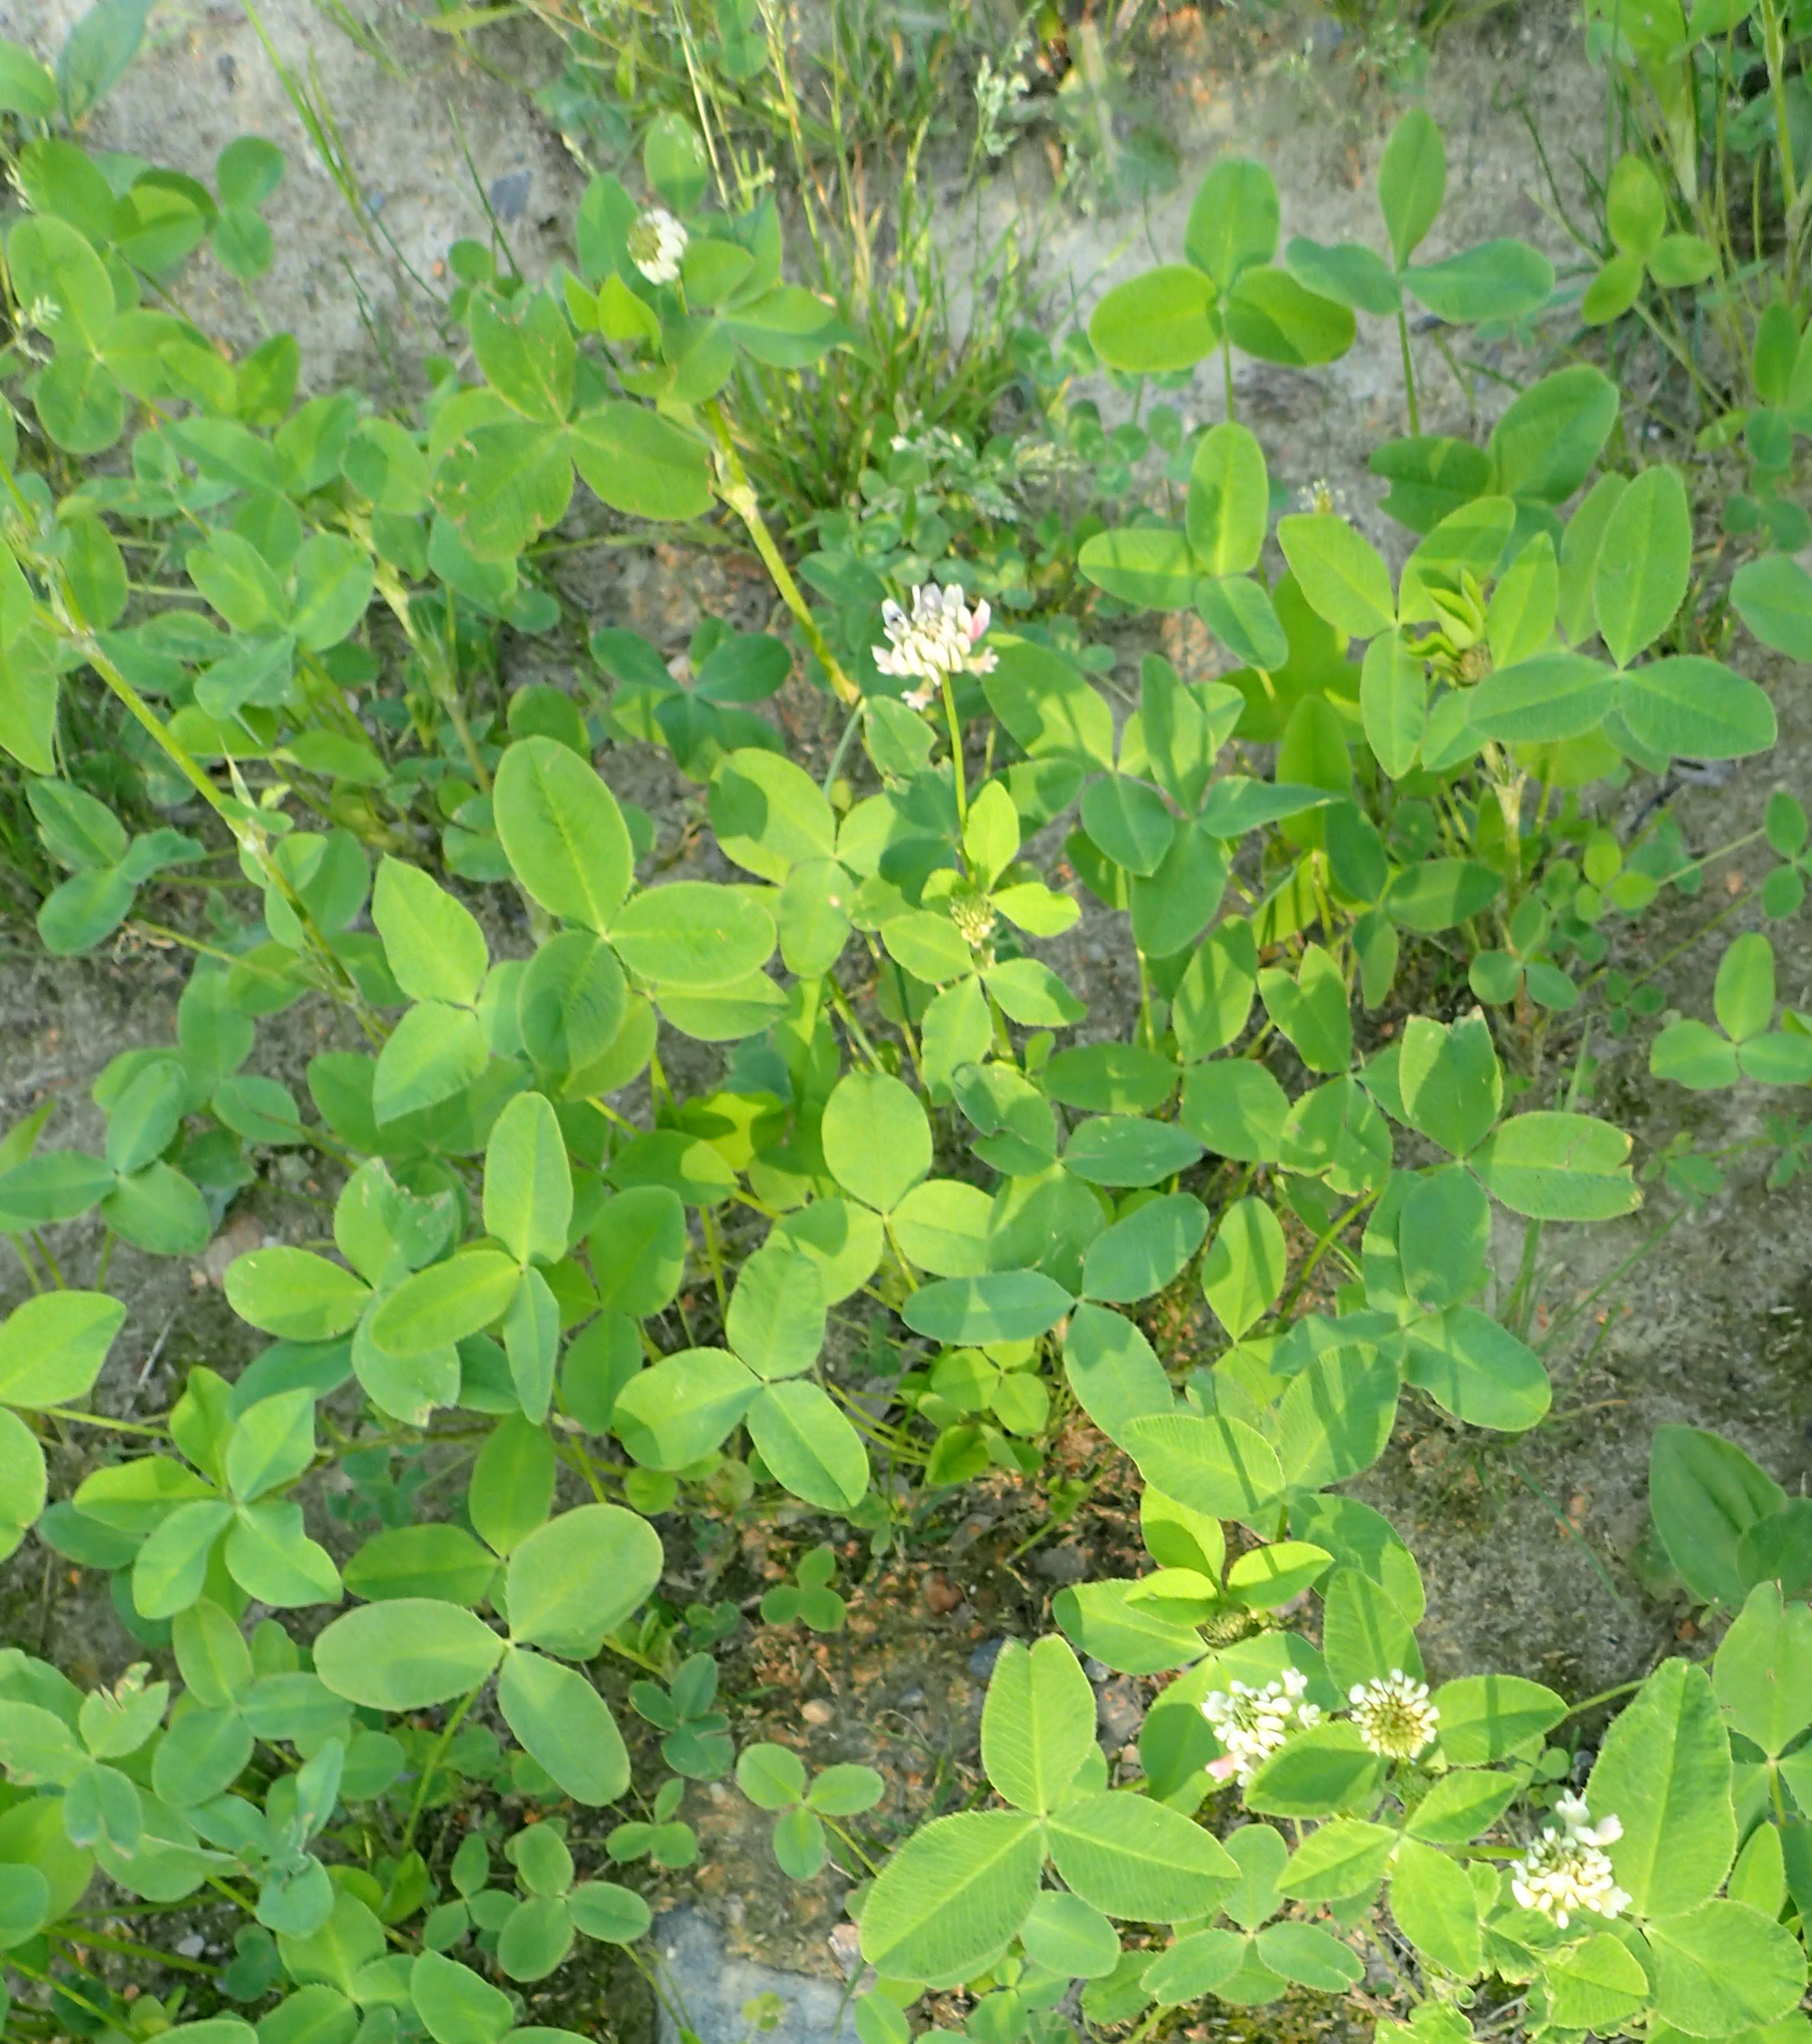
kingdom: Plantae
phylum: Tracheophyta
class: Magnoliopsida
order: Fabales
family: Fabaceae
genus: Trifolium
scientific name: Trifolium repens
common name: White clover
